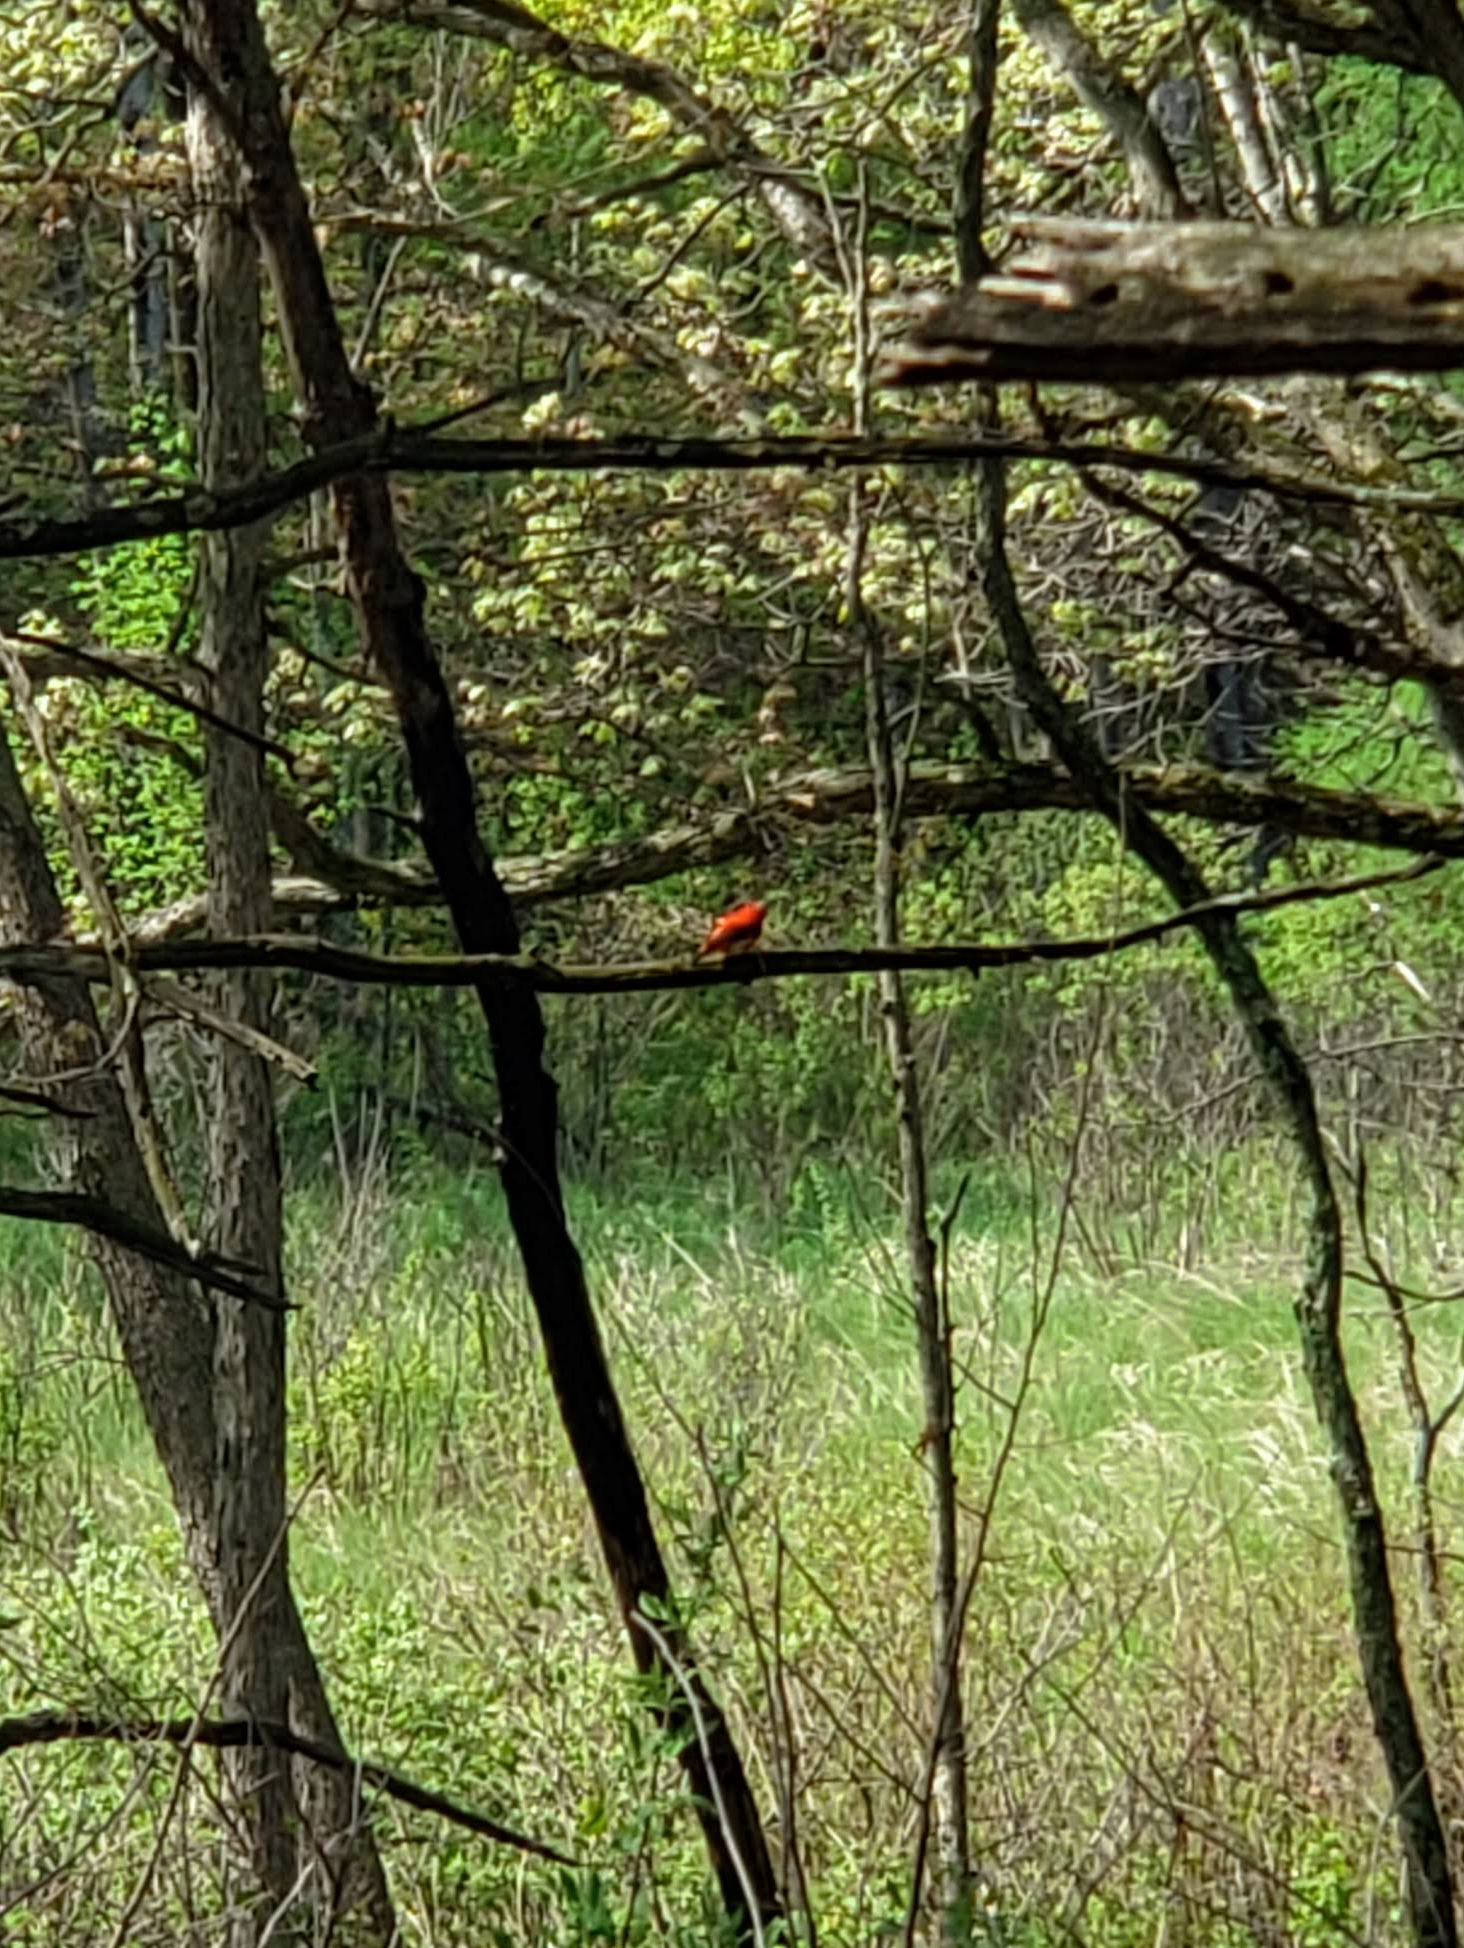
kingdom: Animalia
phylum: Chordata
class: Aves
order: Passeriformes
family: Cardinalidae
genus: Piranga
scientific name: Piranga olivacea
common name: Scarlet tanager
